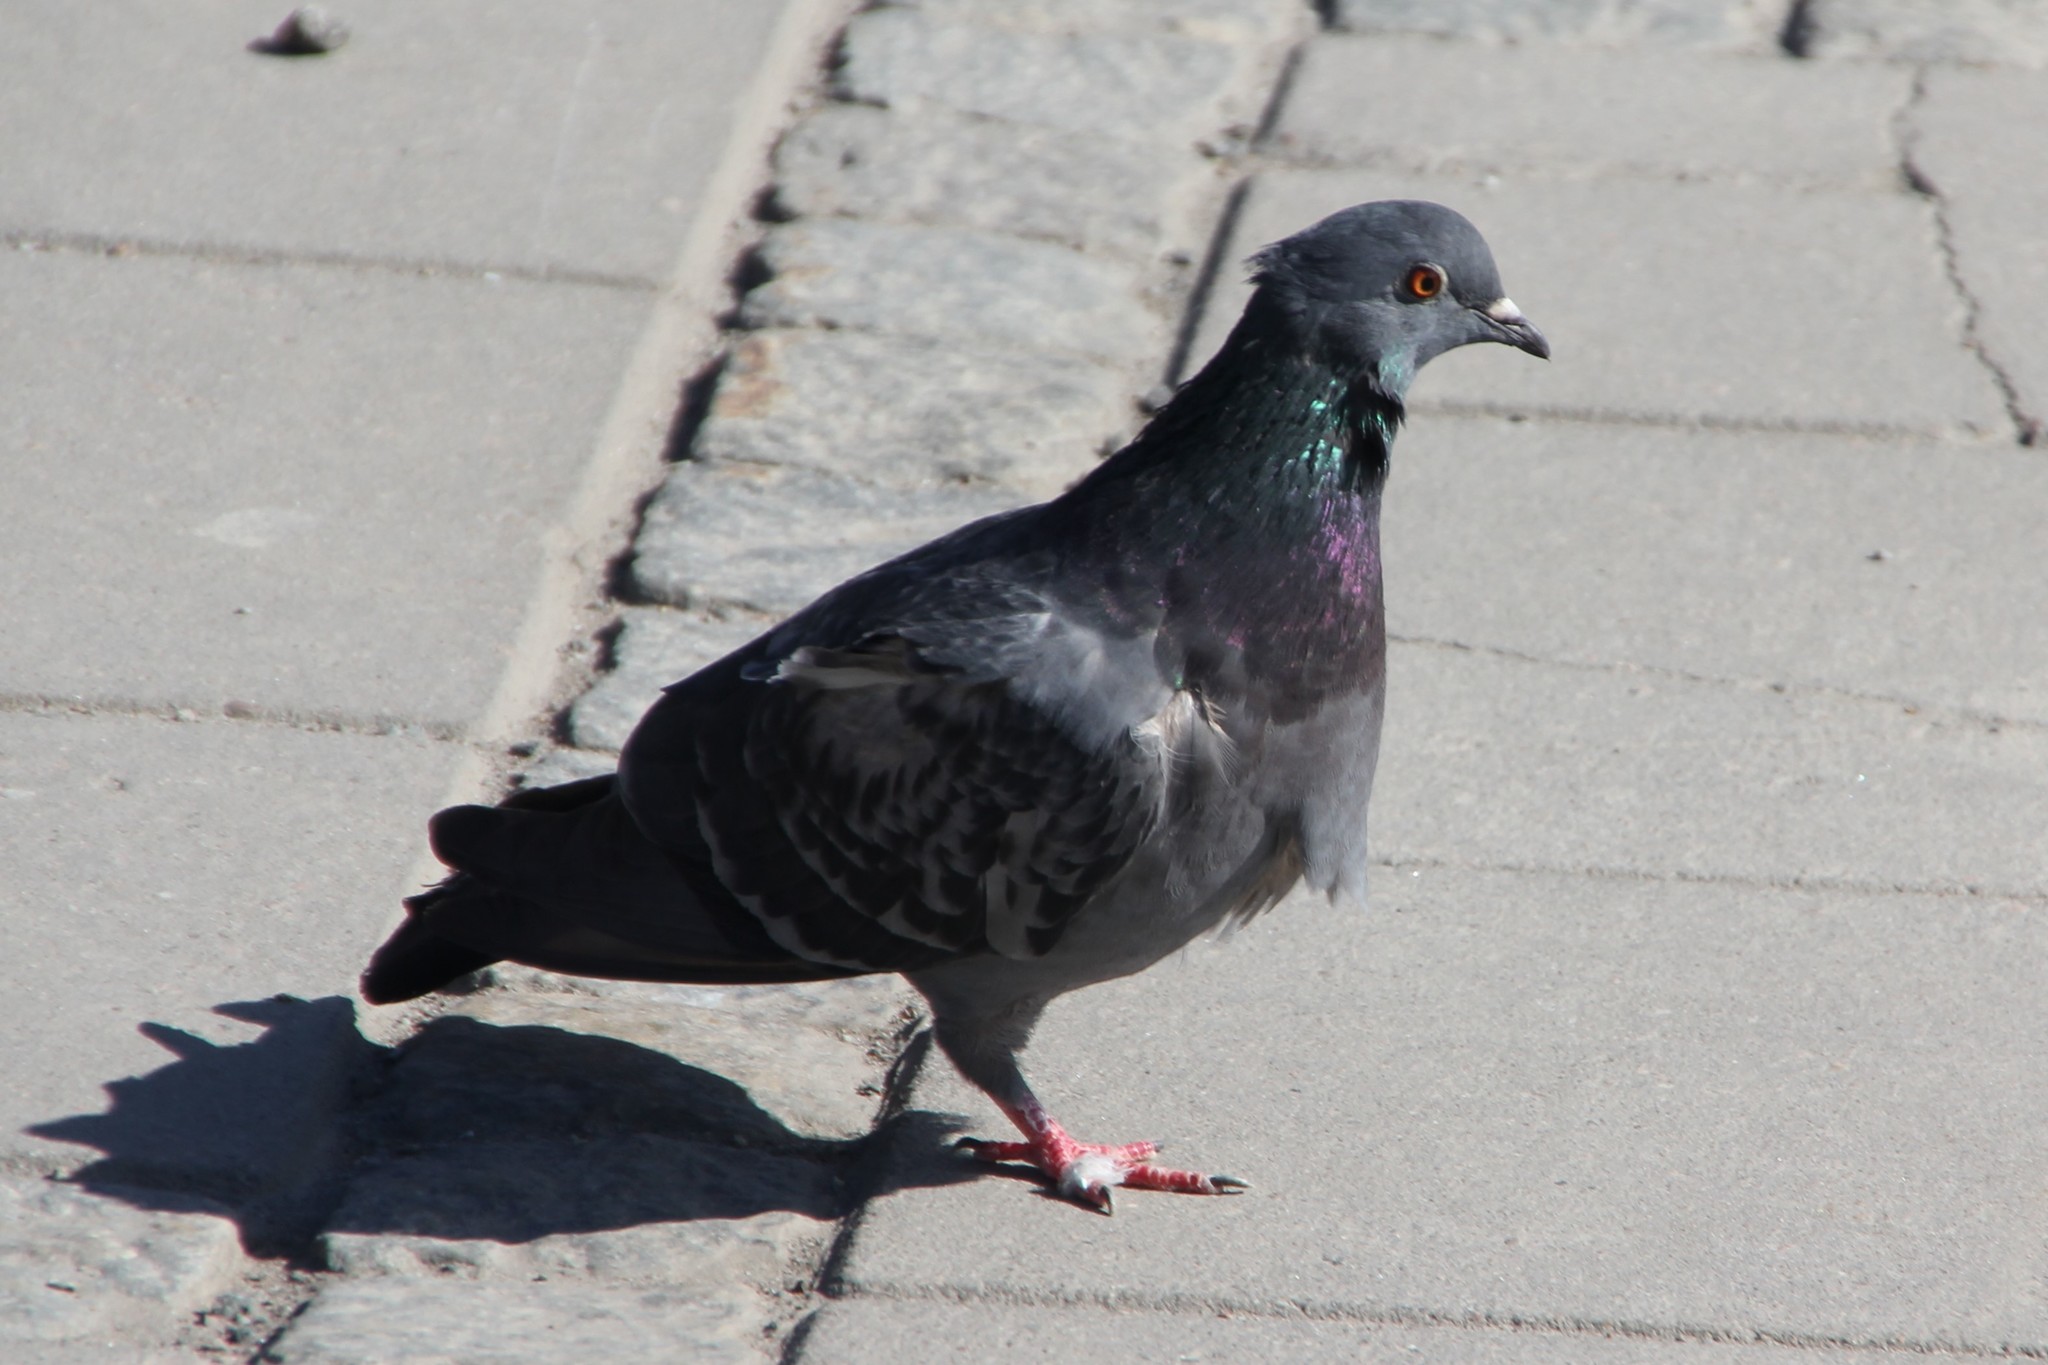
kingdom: Animalia
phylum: Chordata
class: Aves
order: Columbiformes
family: Columbidae
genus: Columba
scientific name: Columba livia
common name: Rock pigeon
